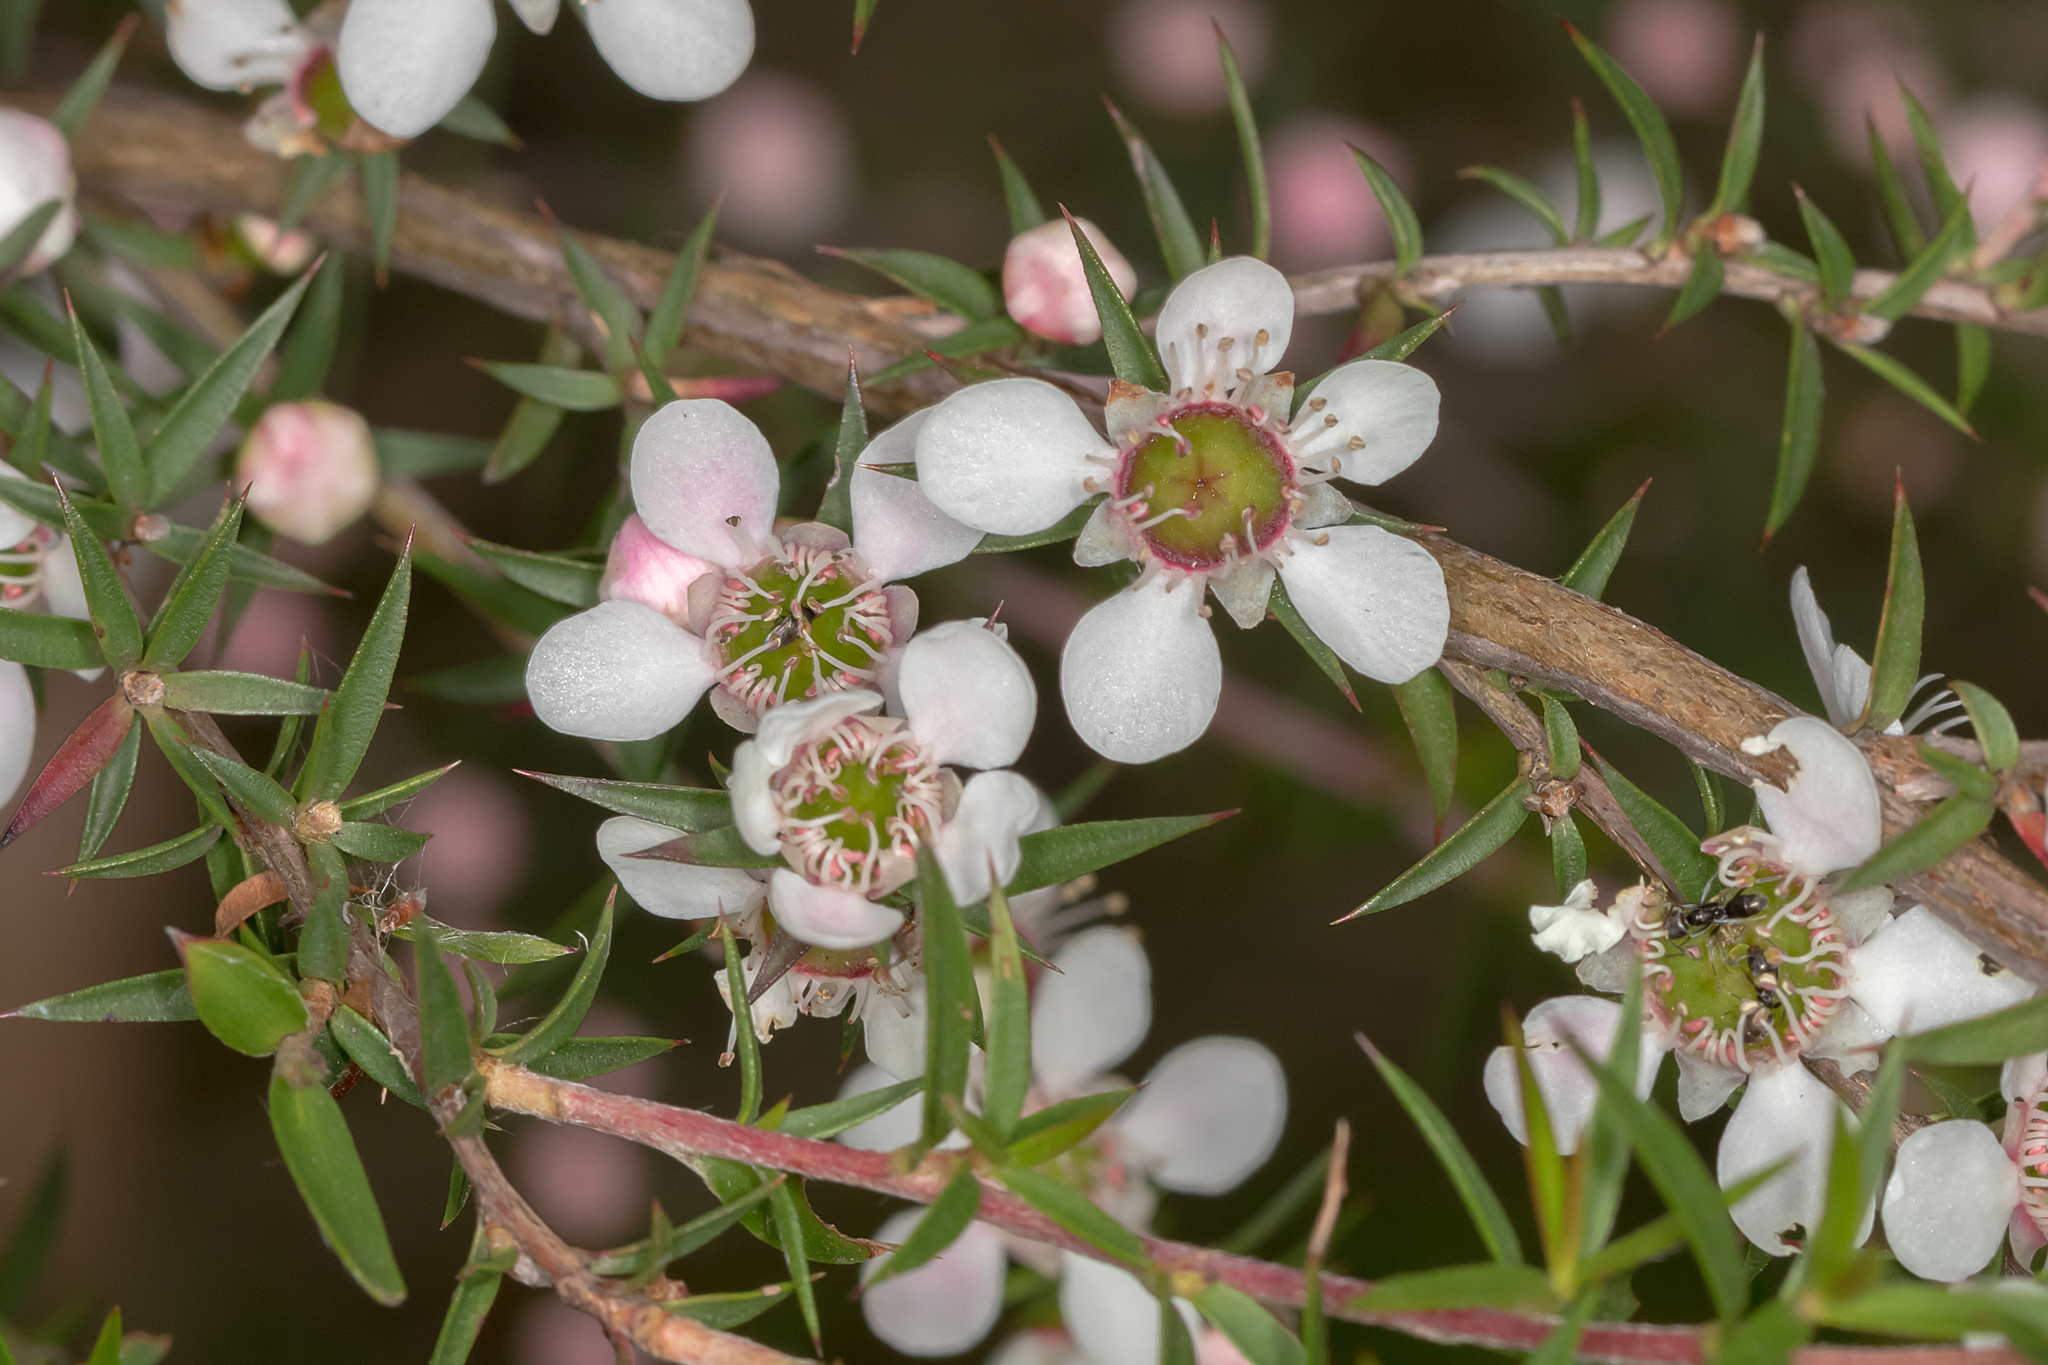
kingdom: Plantae
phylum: Tracheophyta
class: Magnoliopsida
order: Myrtales
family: Myrtaceae
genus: Leptospermum
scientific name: Leptospermum continentale
